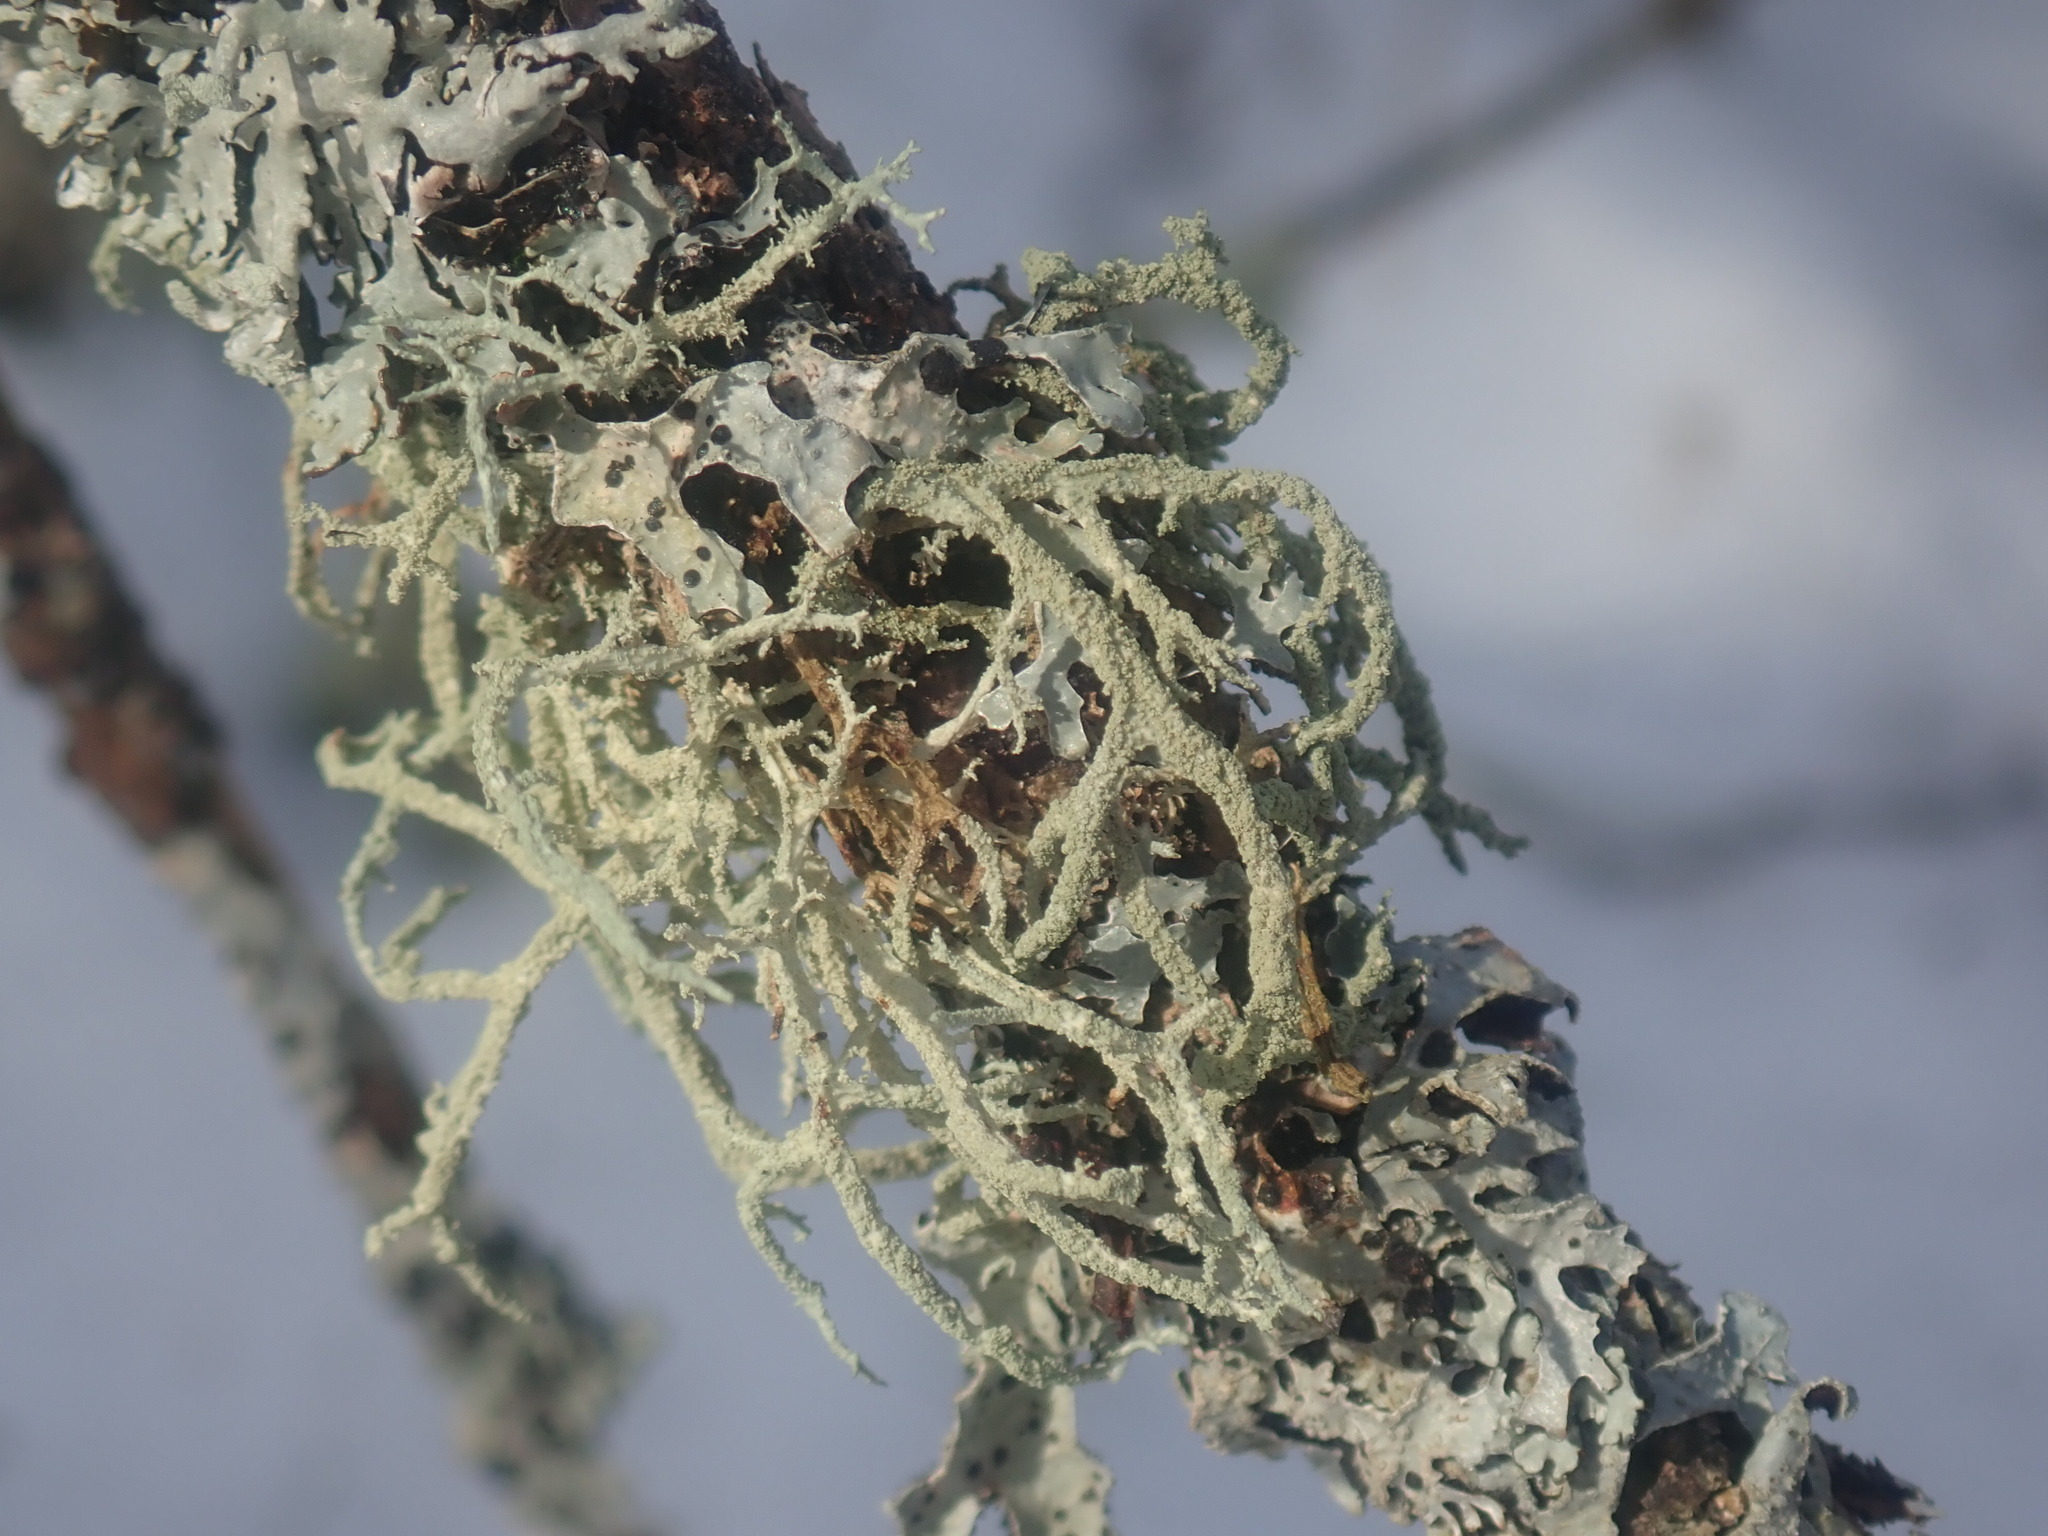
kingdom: Fungi
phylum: Ascomycota
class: Lecanoromycetes
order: Lecanorales
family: Parmeliaceae
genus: Evernia
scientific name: Evernia mesomorpha
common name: Boreal oak moss lichen
